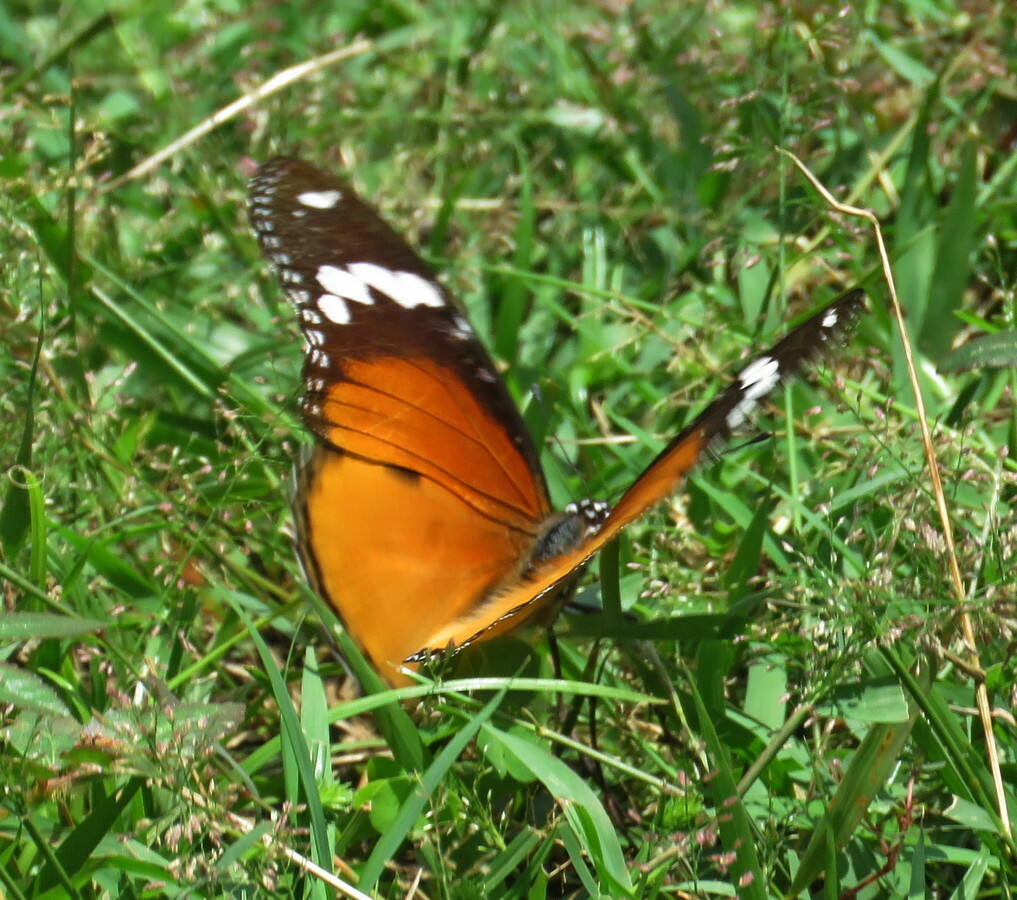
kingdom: Animalia
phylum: Arthropoda
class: Insecta
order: Lepidoptera
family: Nymphalidae
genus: Hypolimnas
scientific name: Hypolimnas misippus
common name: False plain tiger
